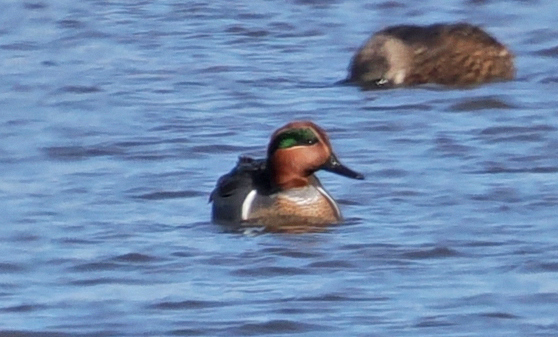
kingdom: Animalia
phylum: Chordata
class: Aves
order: Anseriformes
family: Anatidae
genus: Anas
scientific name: Anas crecca
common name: Eurasian teal
